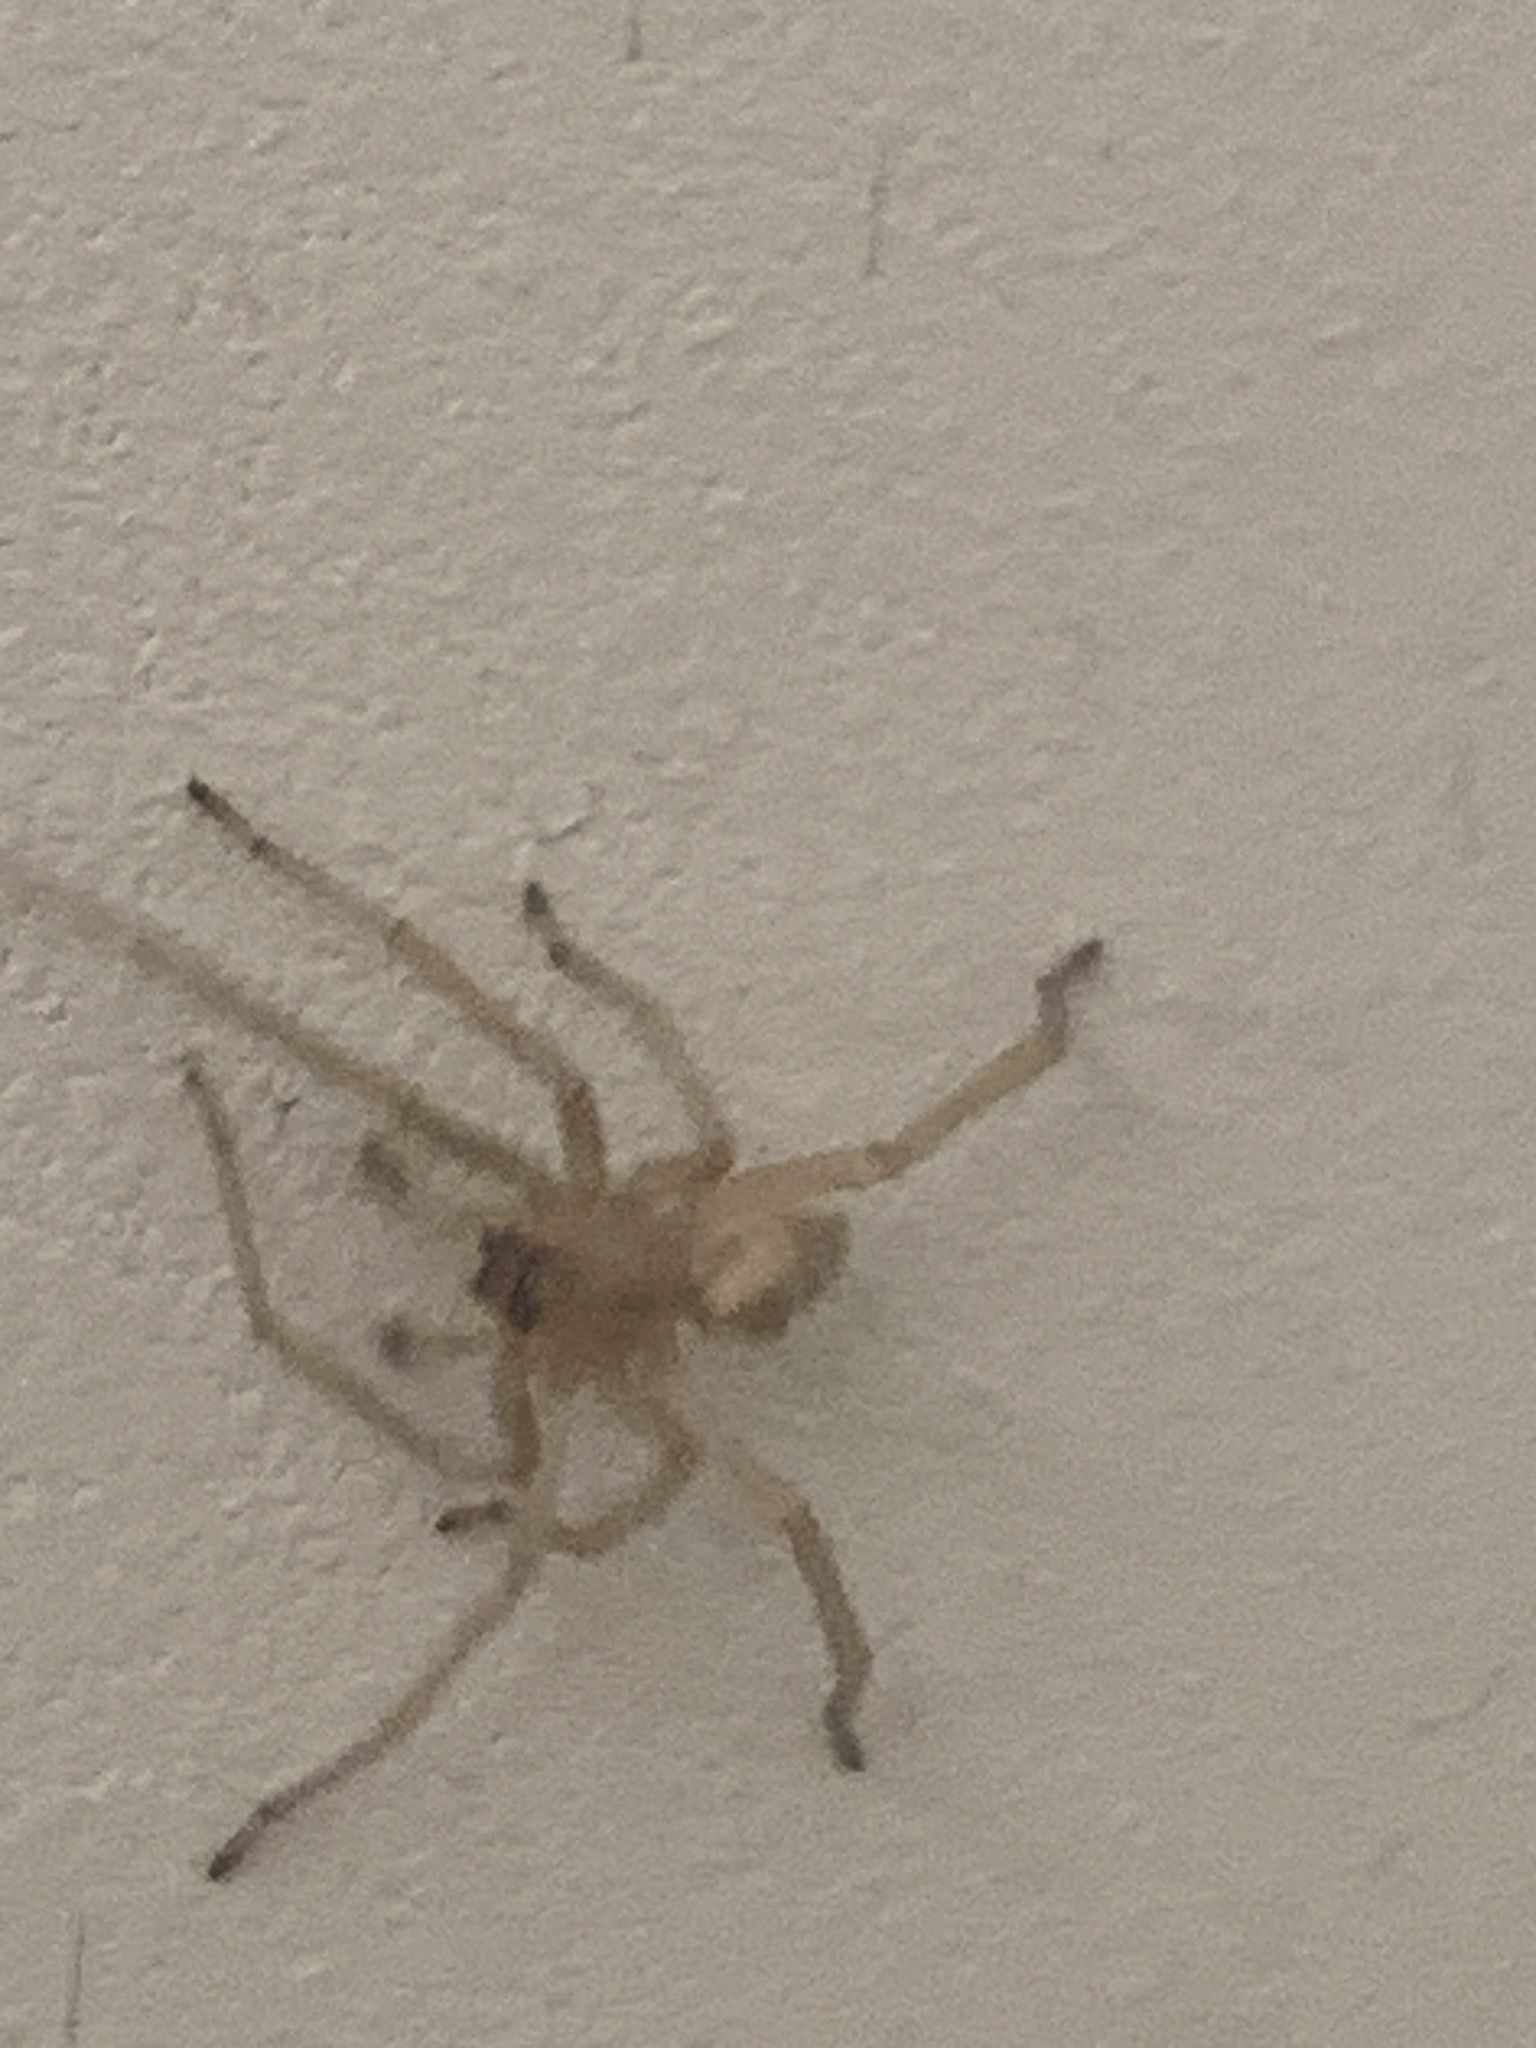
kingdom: Animalia
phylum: Arthropoda
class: Arachnida
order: Araneae
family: Cheiracanthiidae
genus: Cheiracanthium
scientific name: Cheiracanthium
